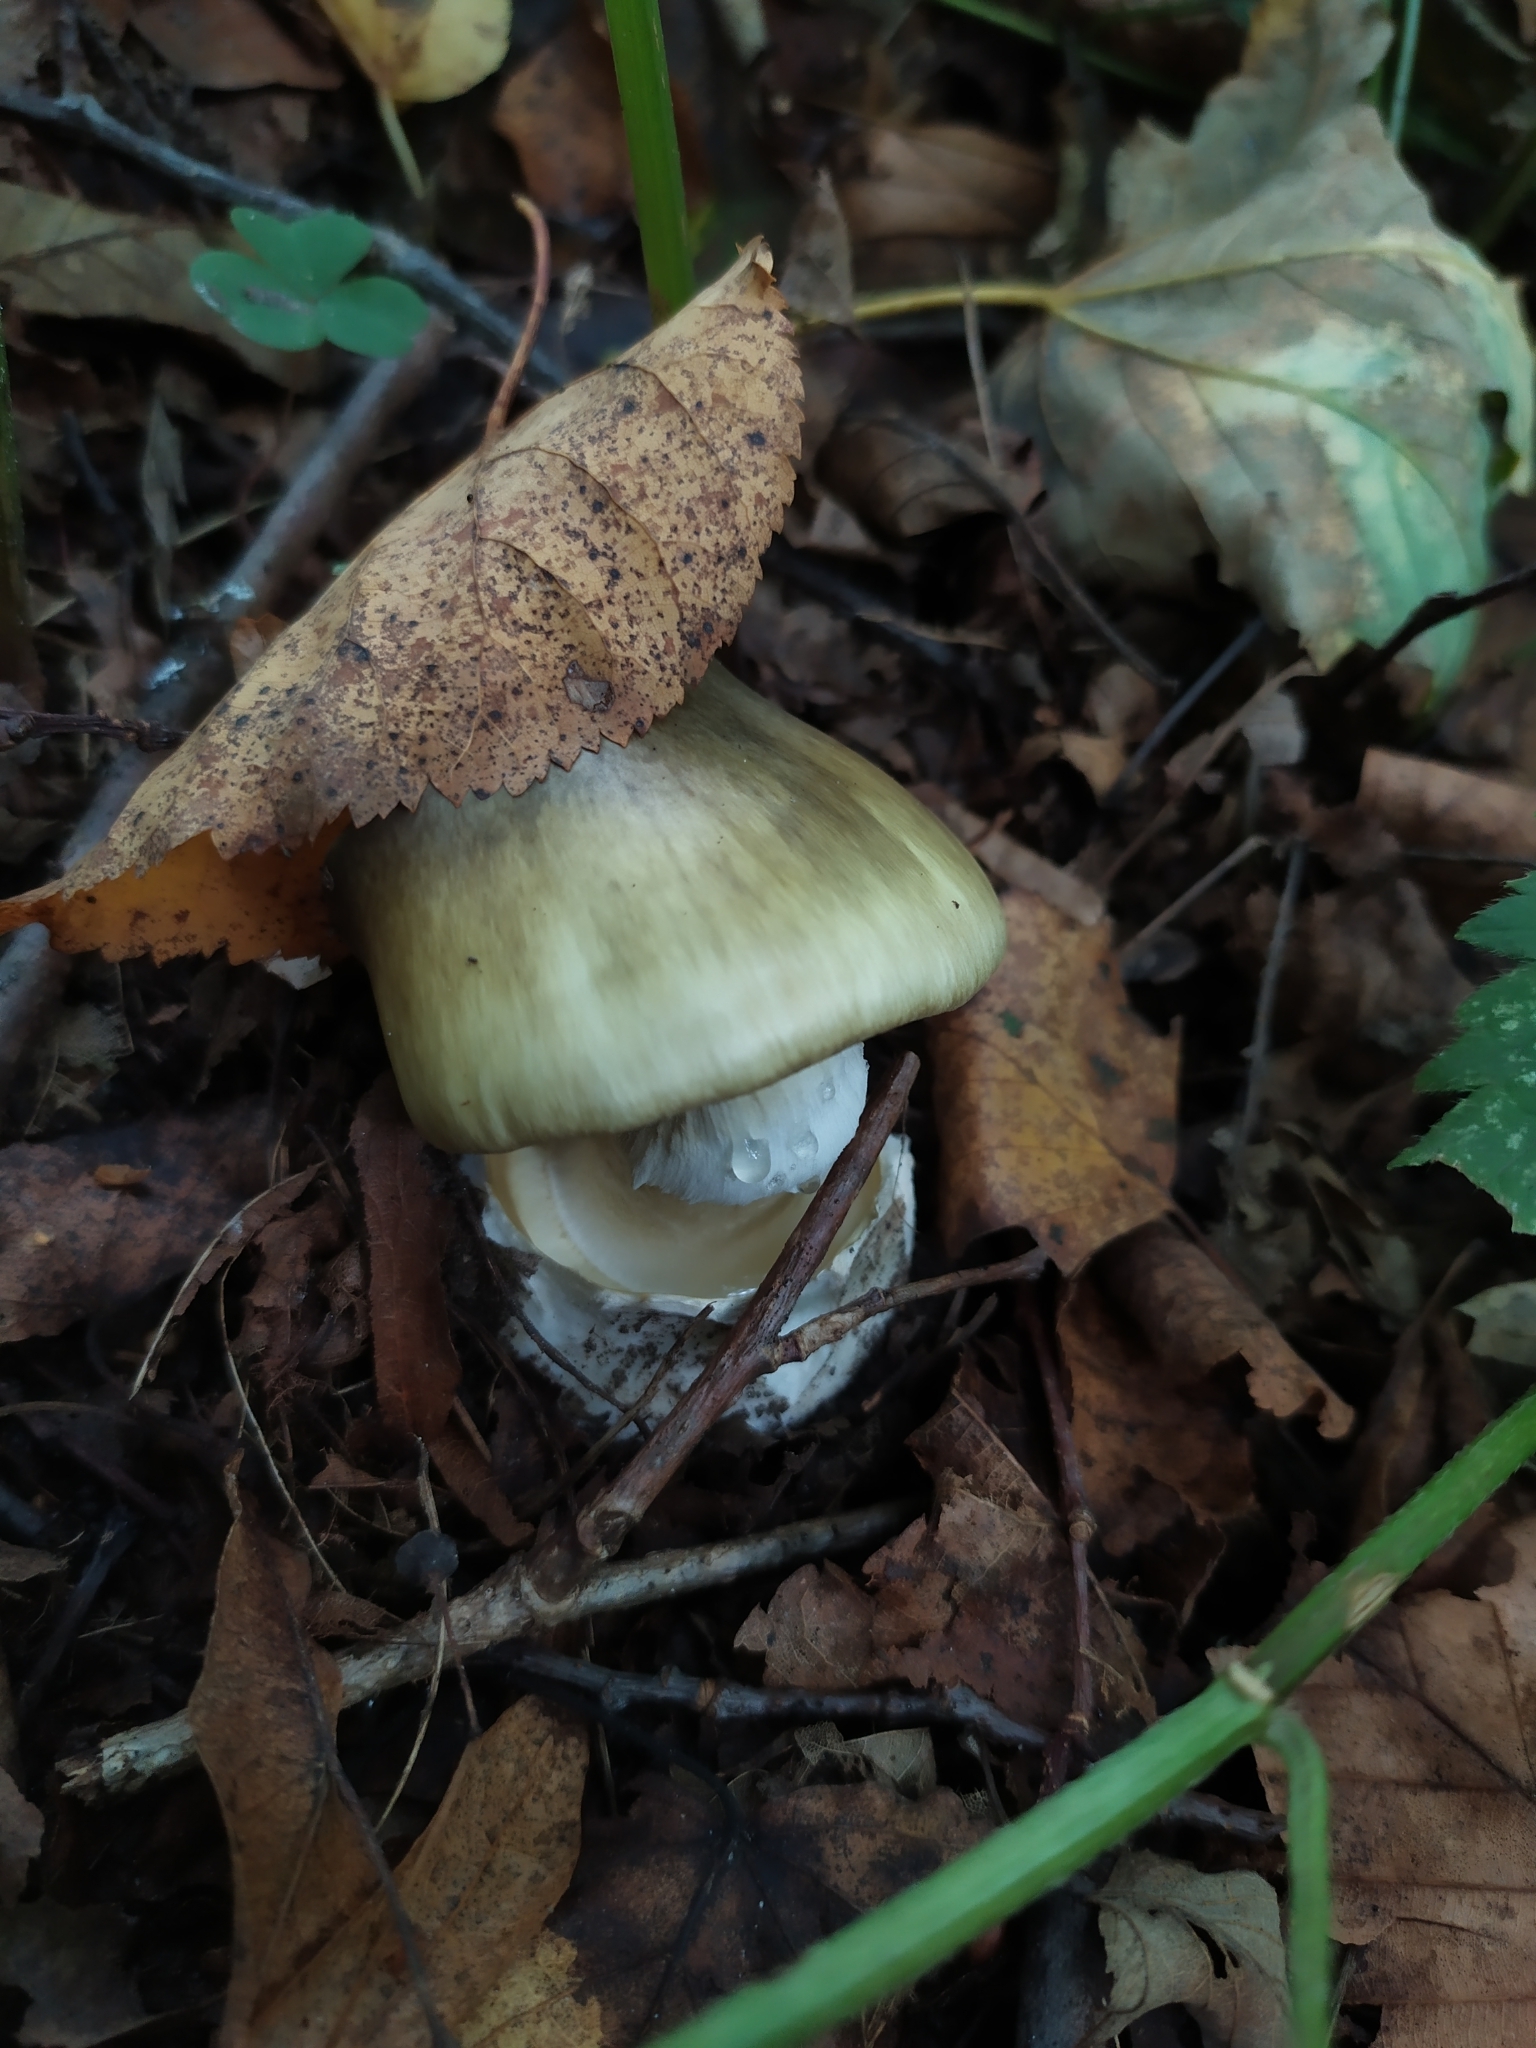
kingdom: Fungi
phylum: Basidiomycota
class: Agaricomycetes
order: Agaricales
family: Amanitaceae
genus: Amanita
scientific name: Amanita phalloides
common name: Death cap
